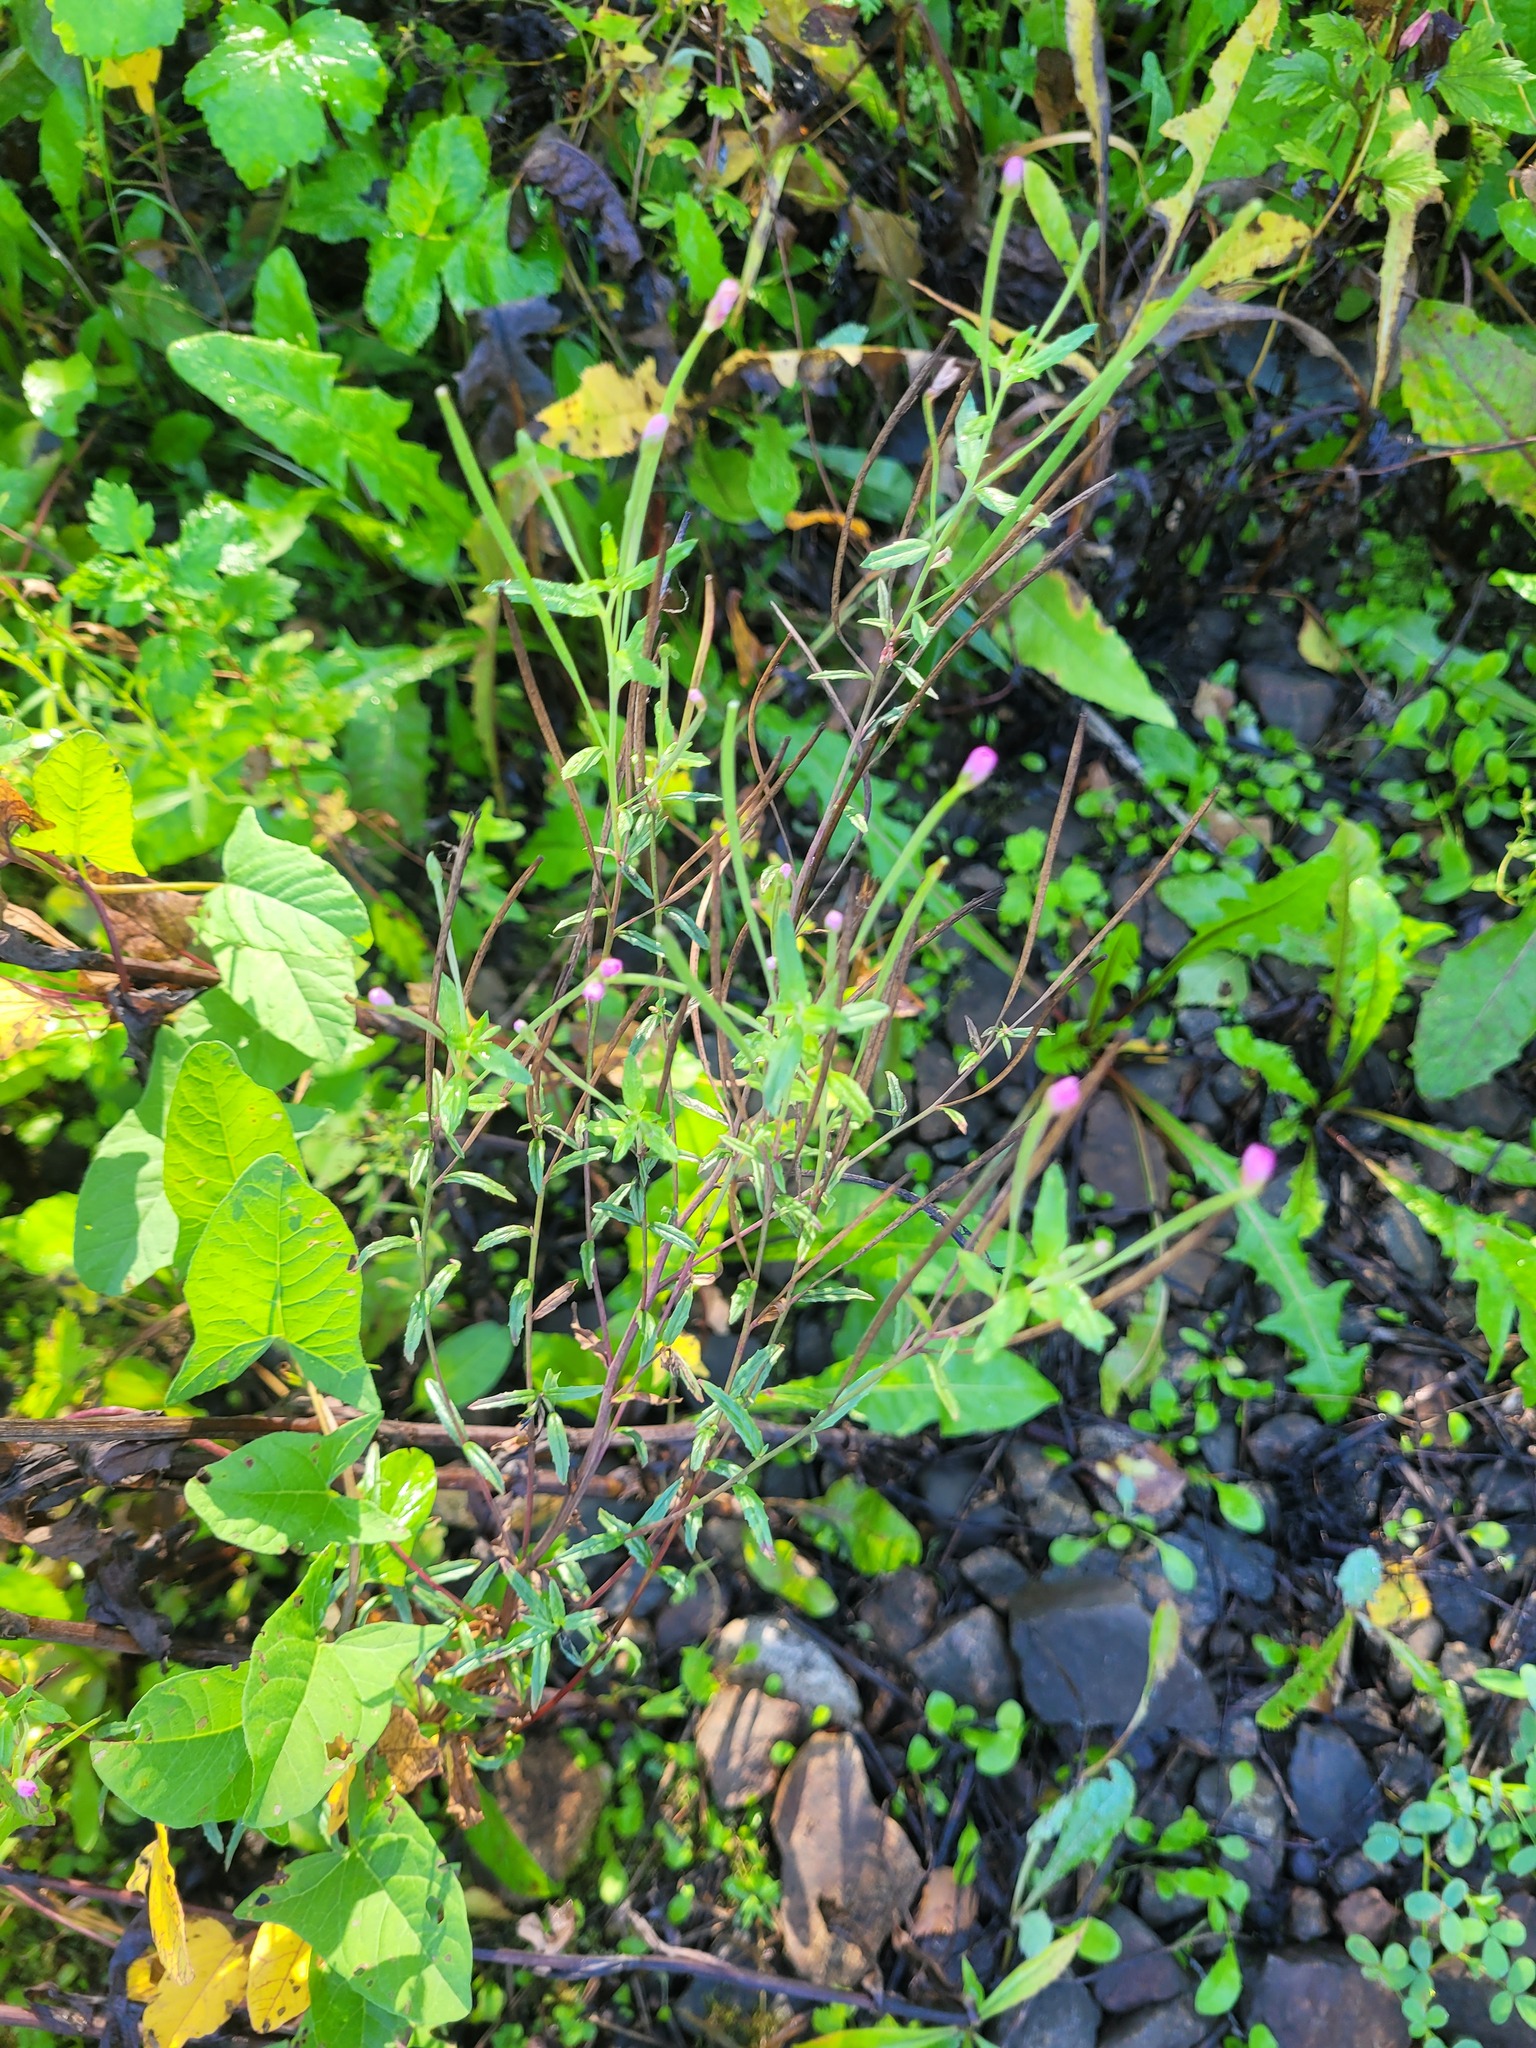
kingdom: Plantae
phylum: Tracheophyta
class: Magnoliopsida
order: Myrtales
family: Onagraceae
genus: Epilobium
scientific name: Epilobium tetragonum
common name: Square-stemmed willowherb
